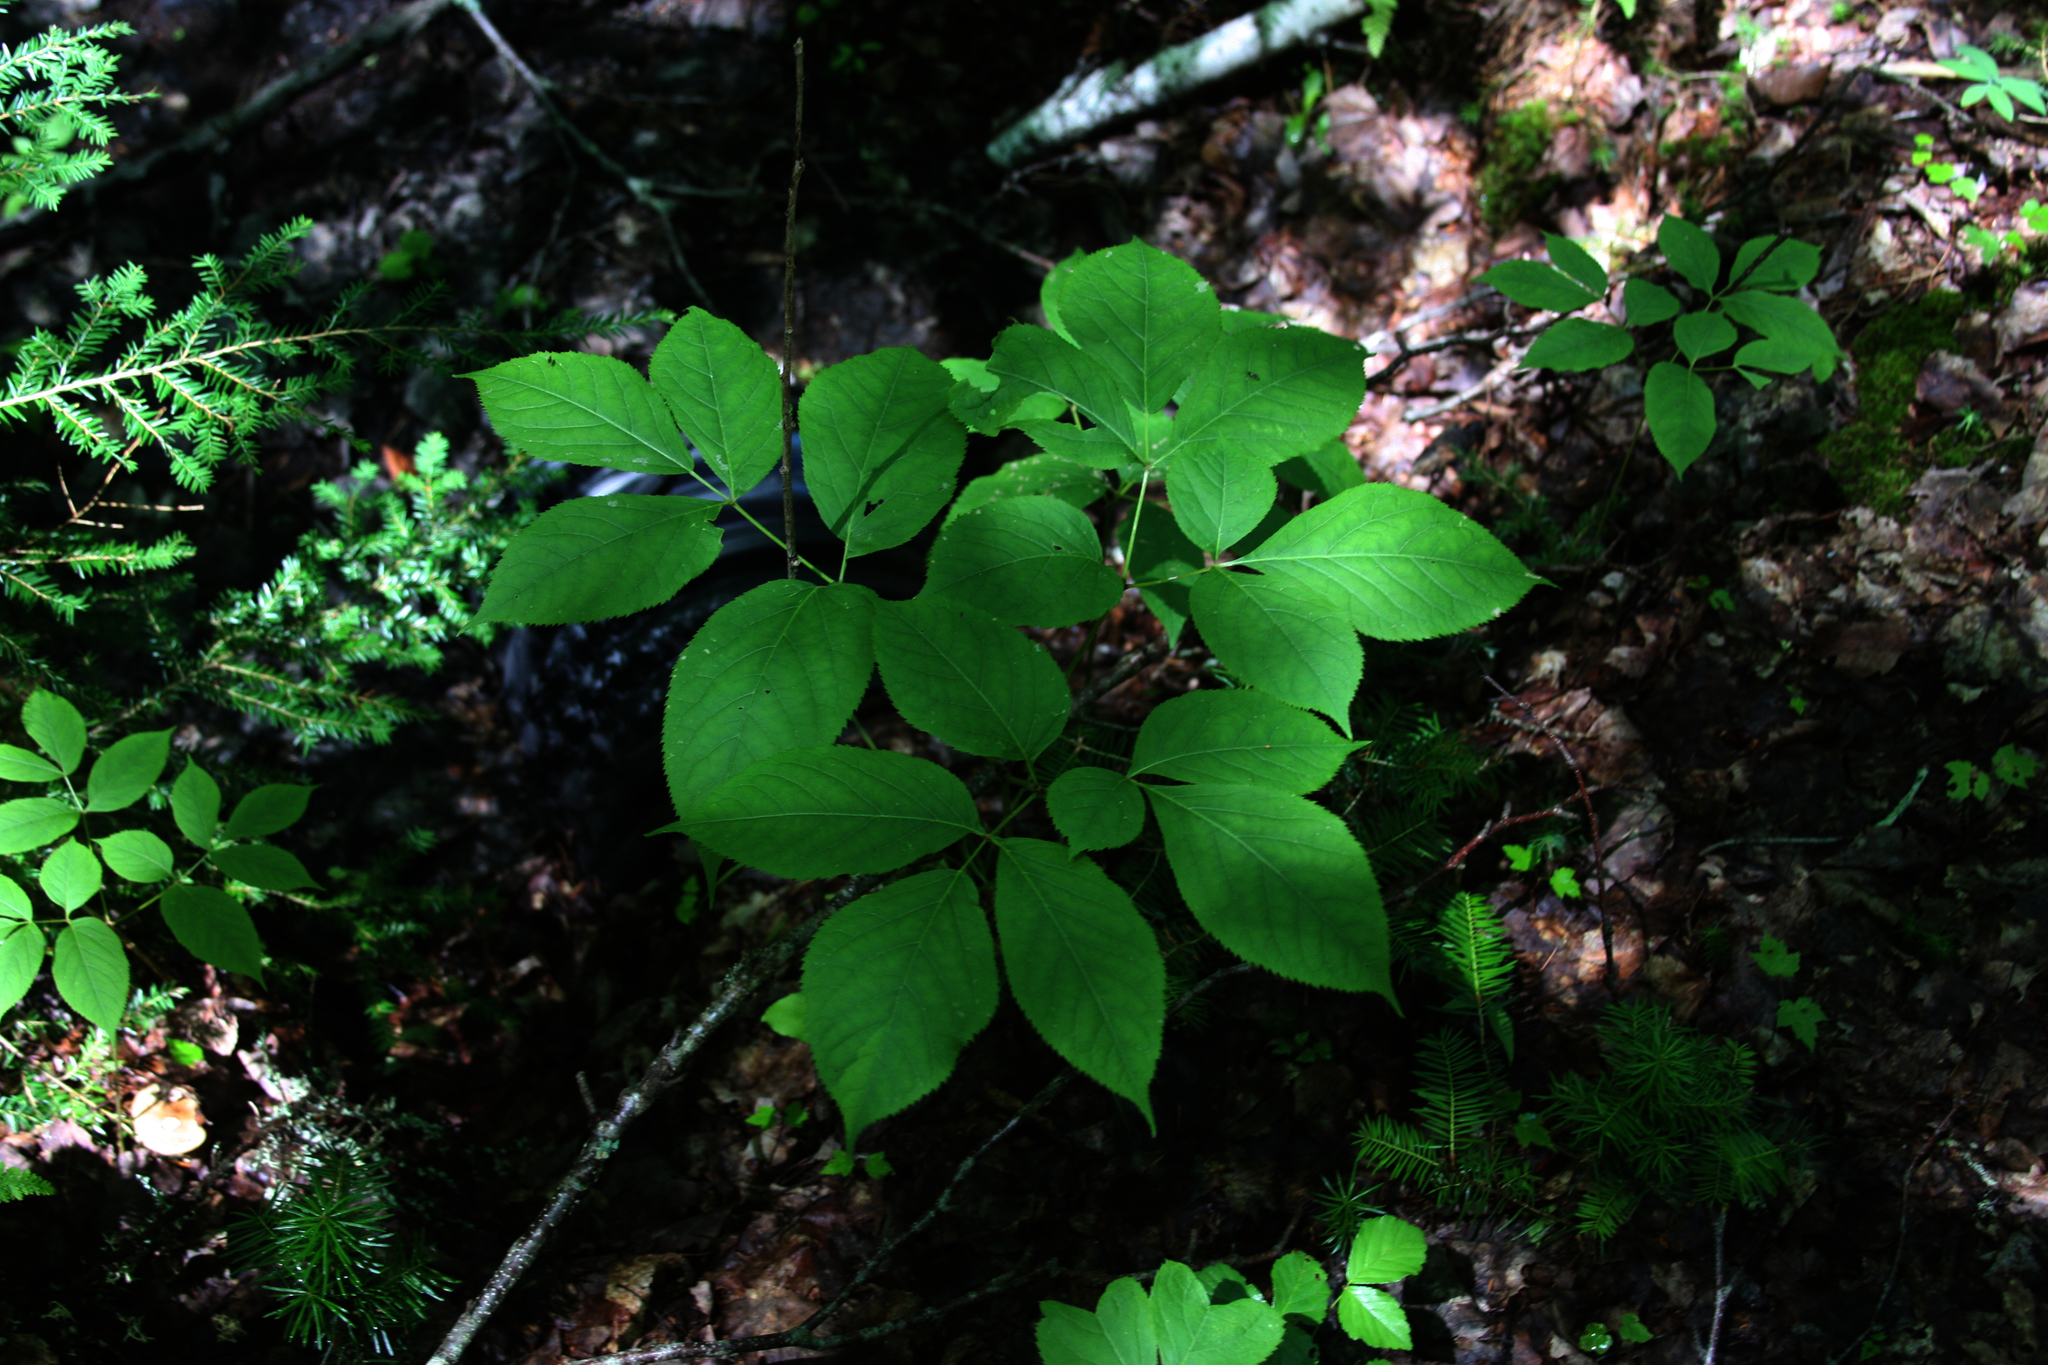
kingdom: Plantae
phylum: Tracheophyta
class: Magnoliopsida
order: Apiales
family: Araliaceae
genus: Aralia
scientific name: Aralia nudicaulis
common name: Wild sarsaparilla
